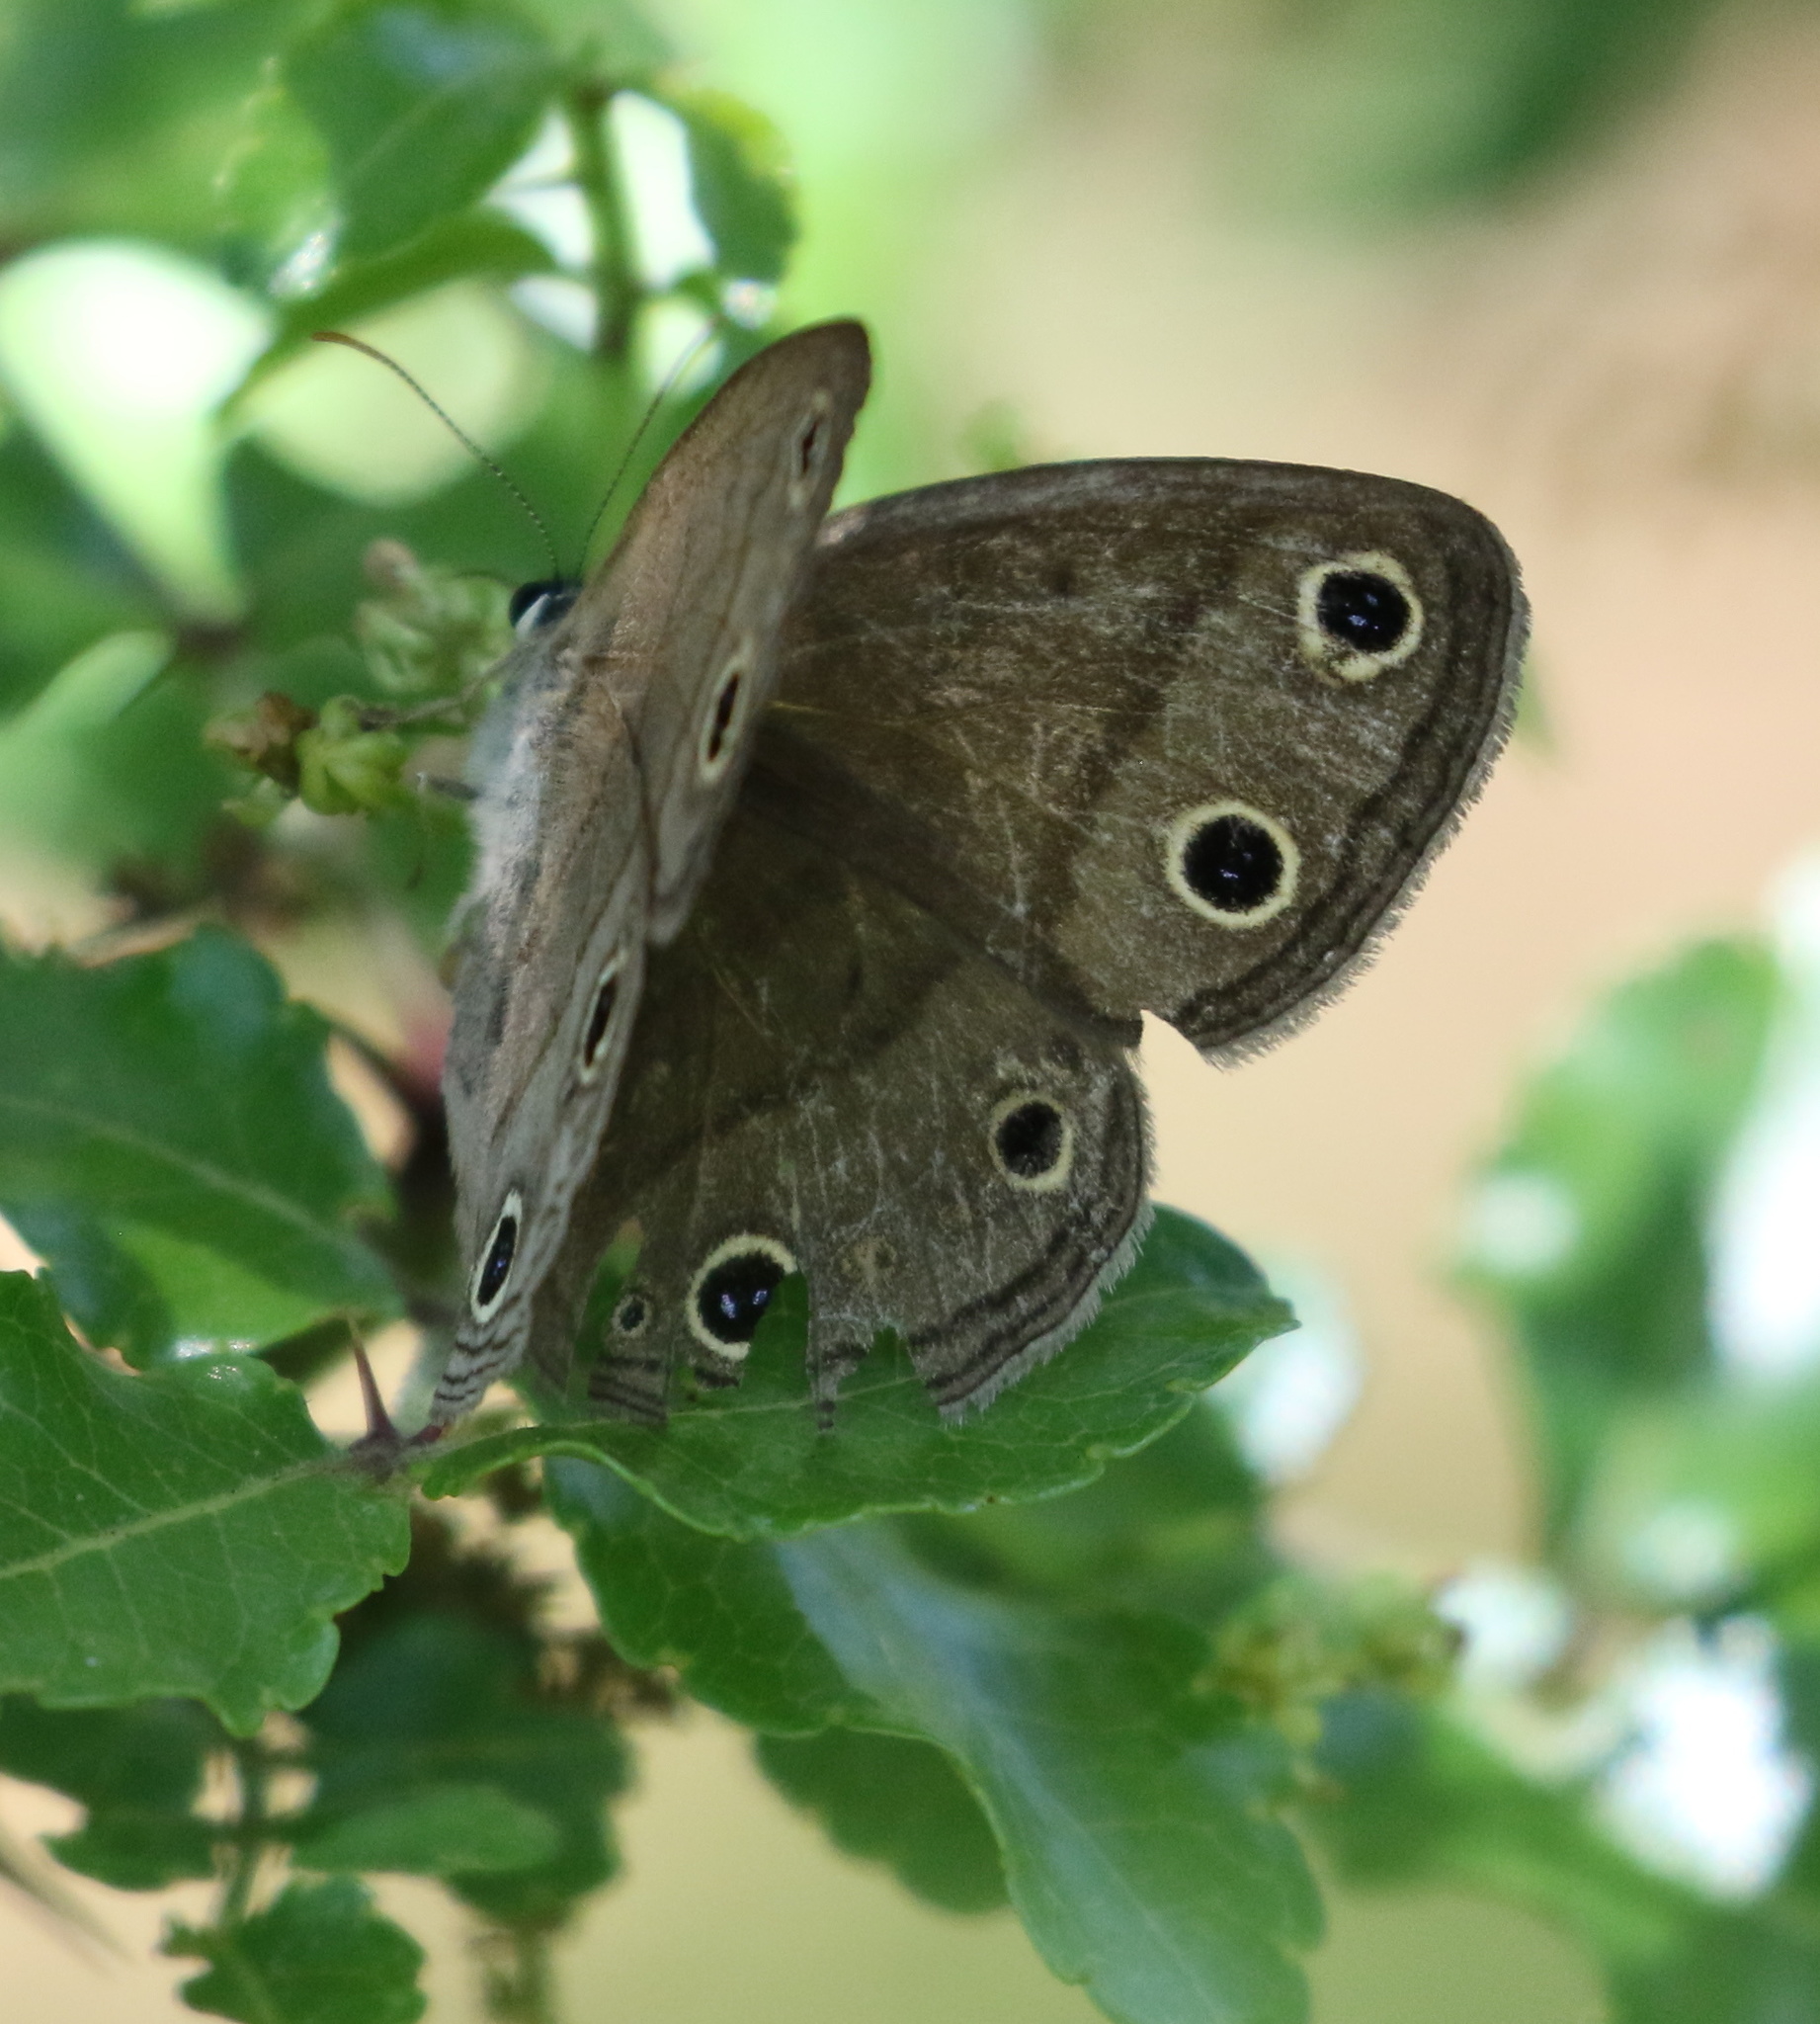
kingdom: Animalia
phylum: Arthropoda
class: Insecta
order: Lepidoptera
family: Nymphalidae
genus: Euptychia
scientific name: Euptychia cymela
